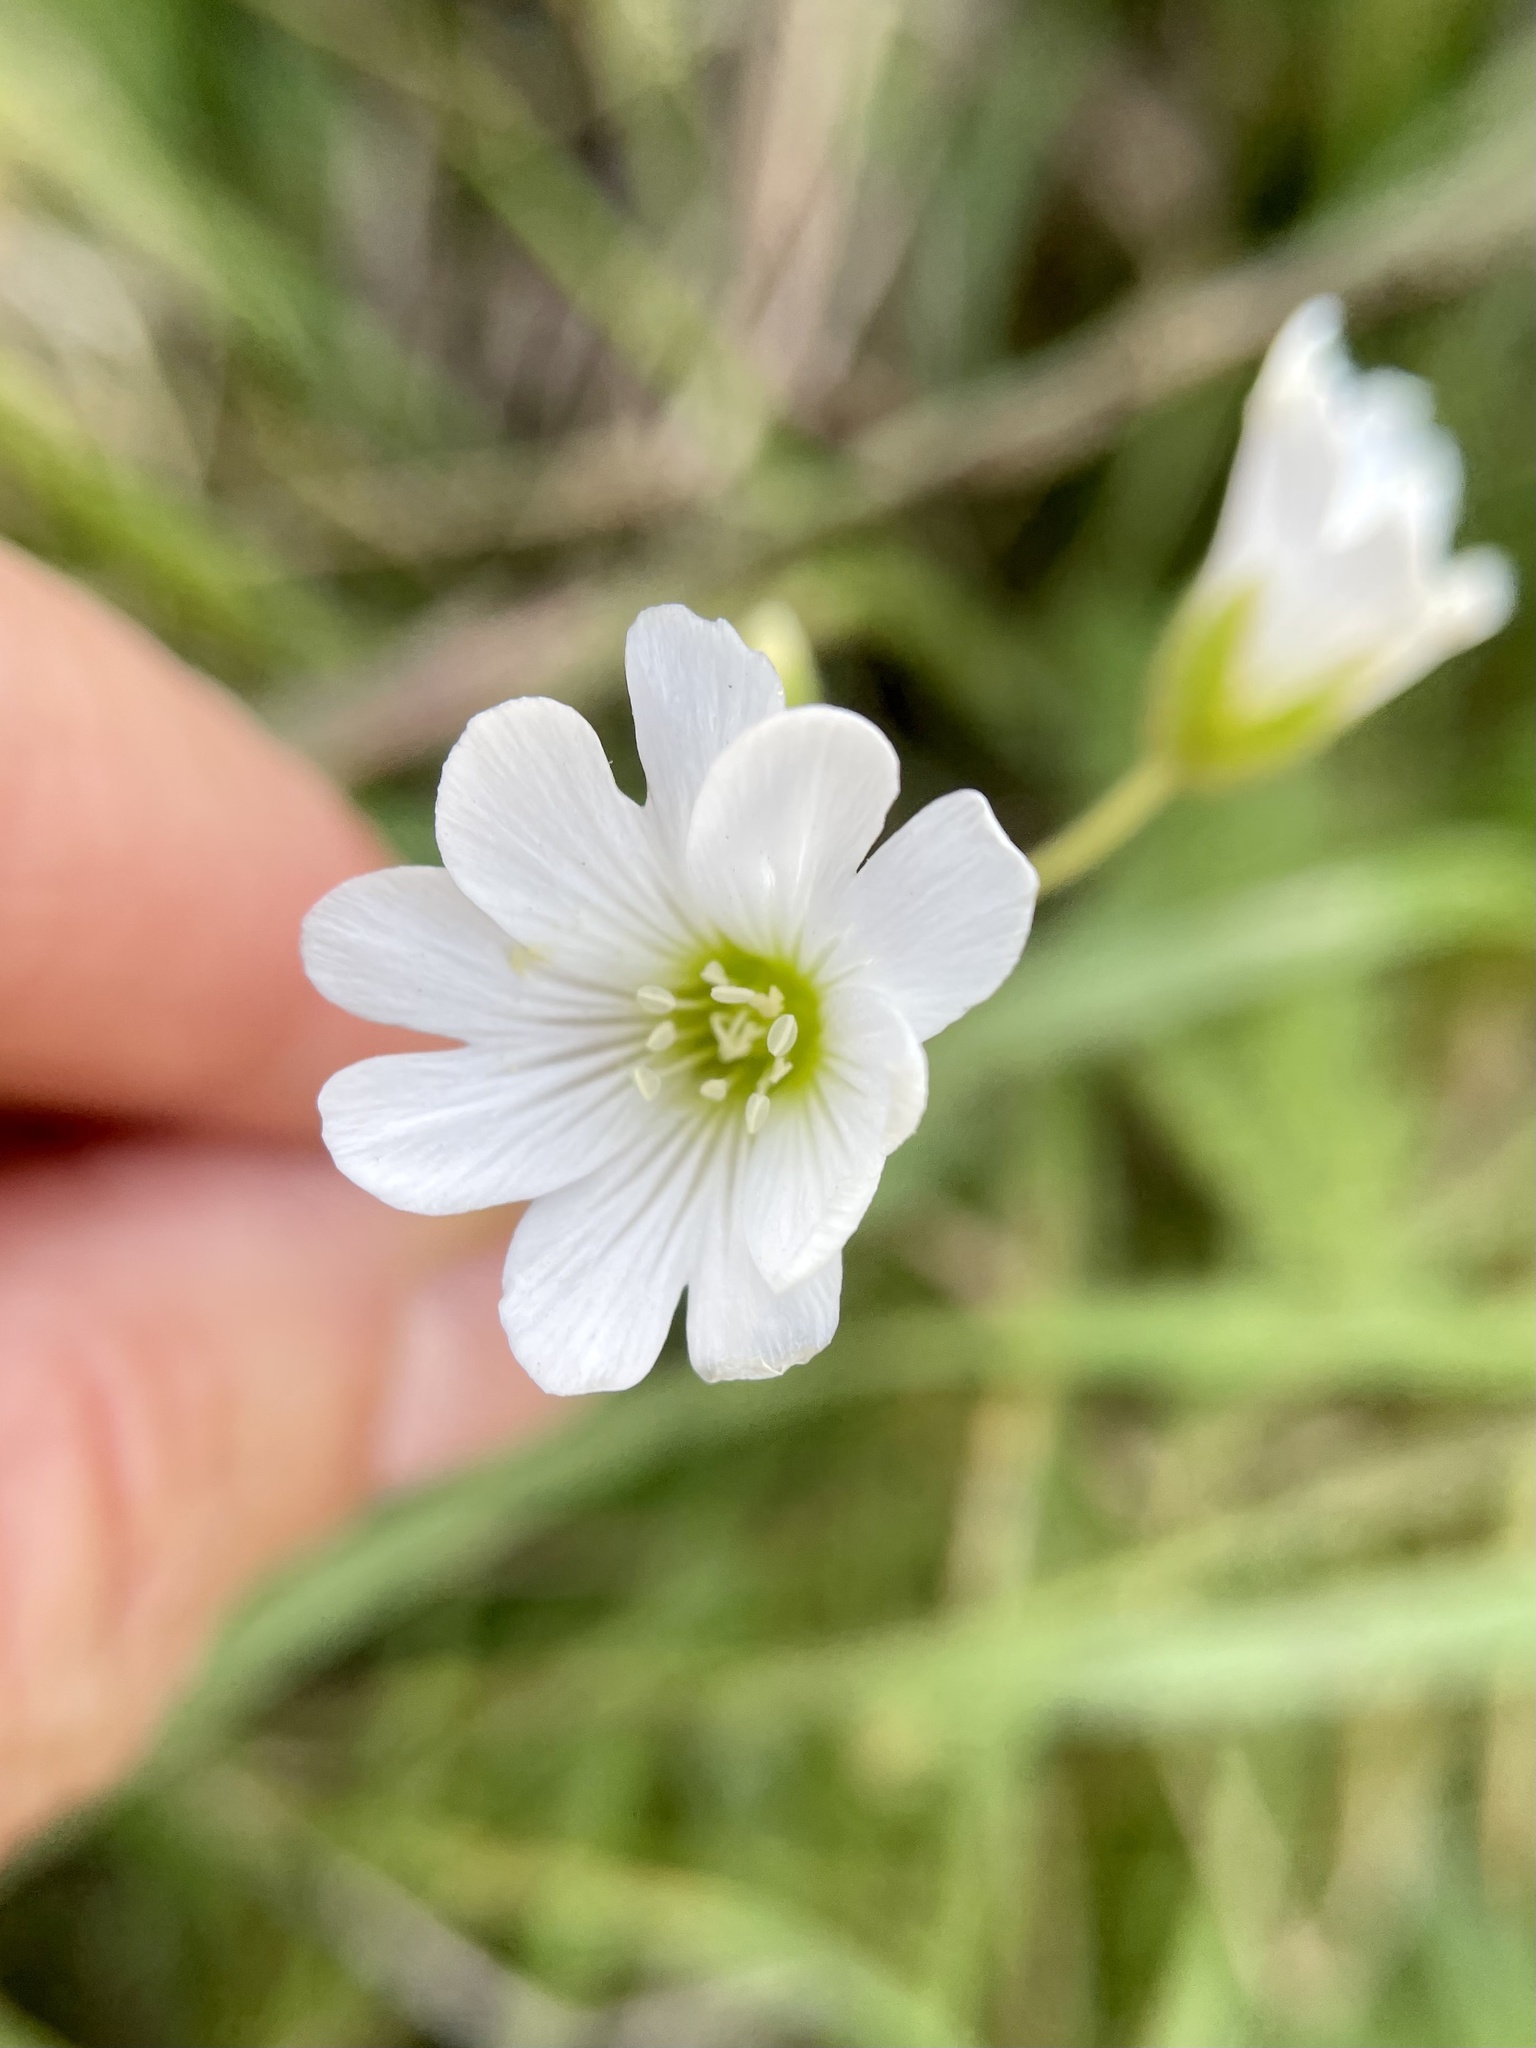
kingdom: Plantae
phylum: Tracheophyta
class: Magnoliopsida
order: Caryophyllales
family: Caryophyllaceae
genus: Cerastium
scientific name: Cerastium arvense
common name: Field mouse-ear
